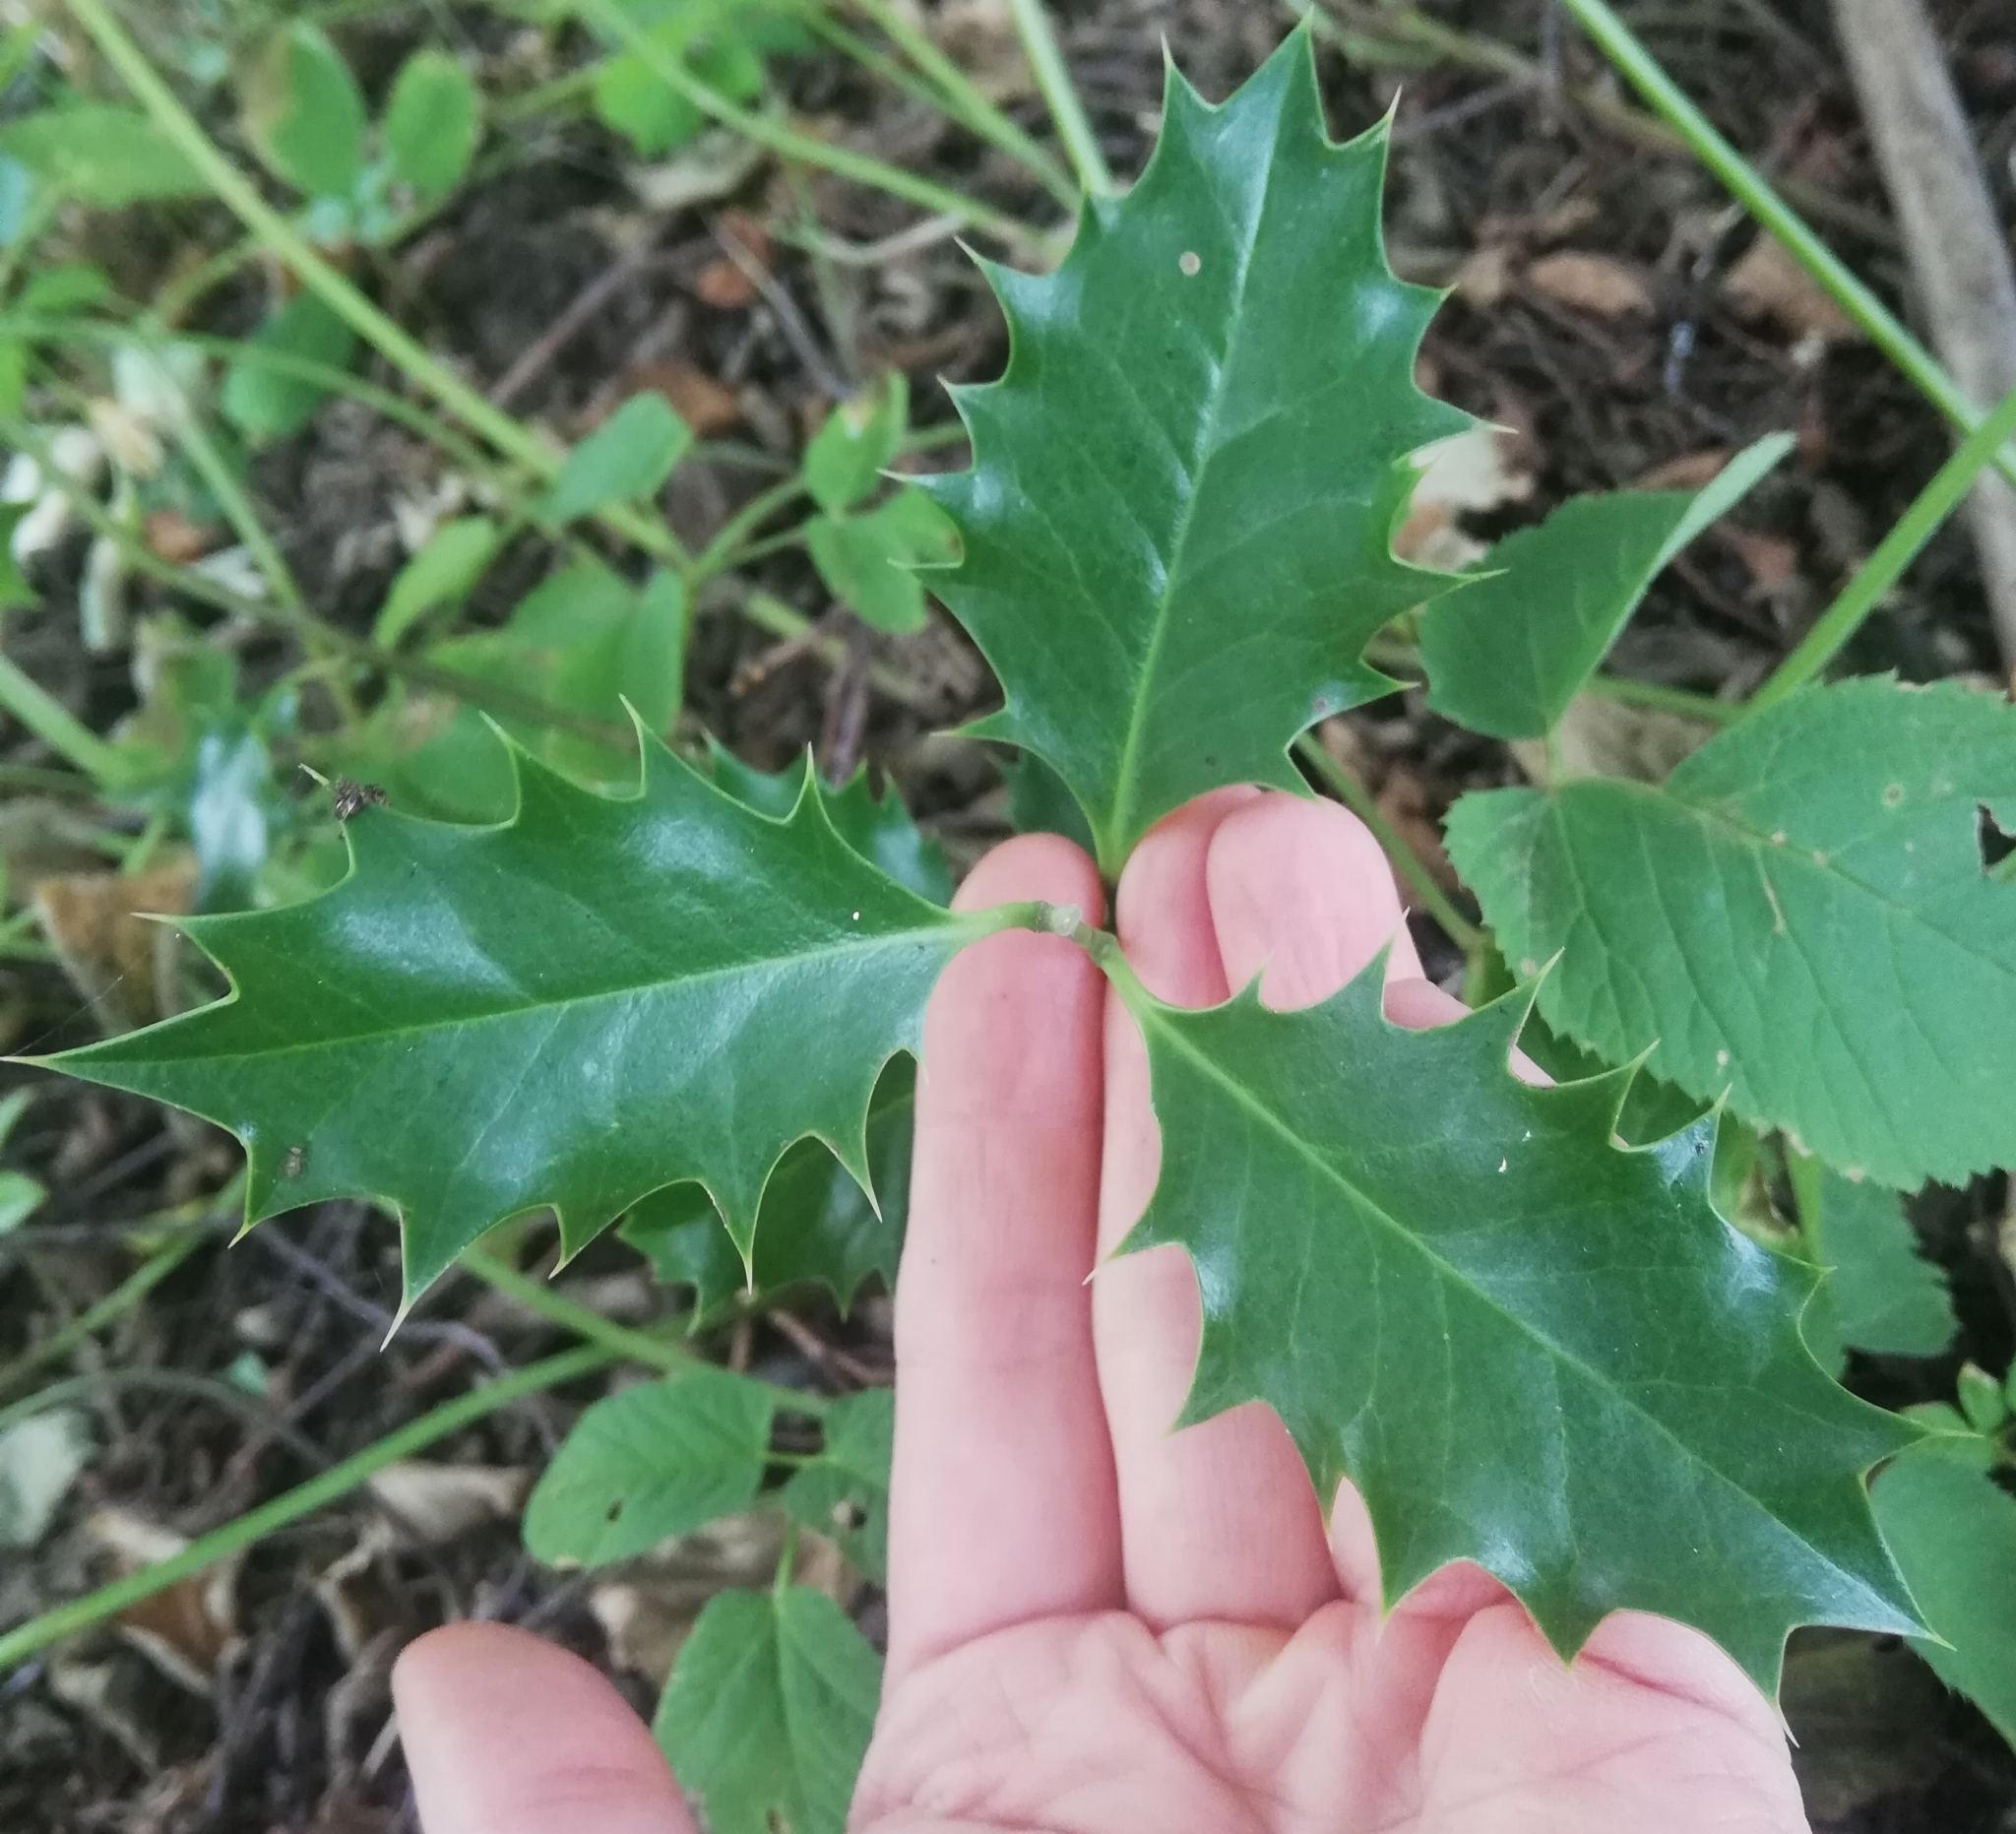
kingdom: Plantae
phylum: Tracheophyta
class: Magnoliopsida
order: Aquifoliales
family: Aquifoliaceae
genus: Ilex
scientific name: Ilex aquifolium
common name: English holly
